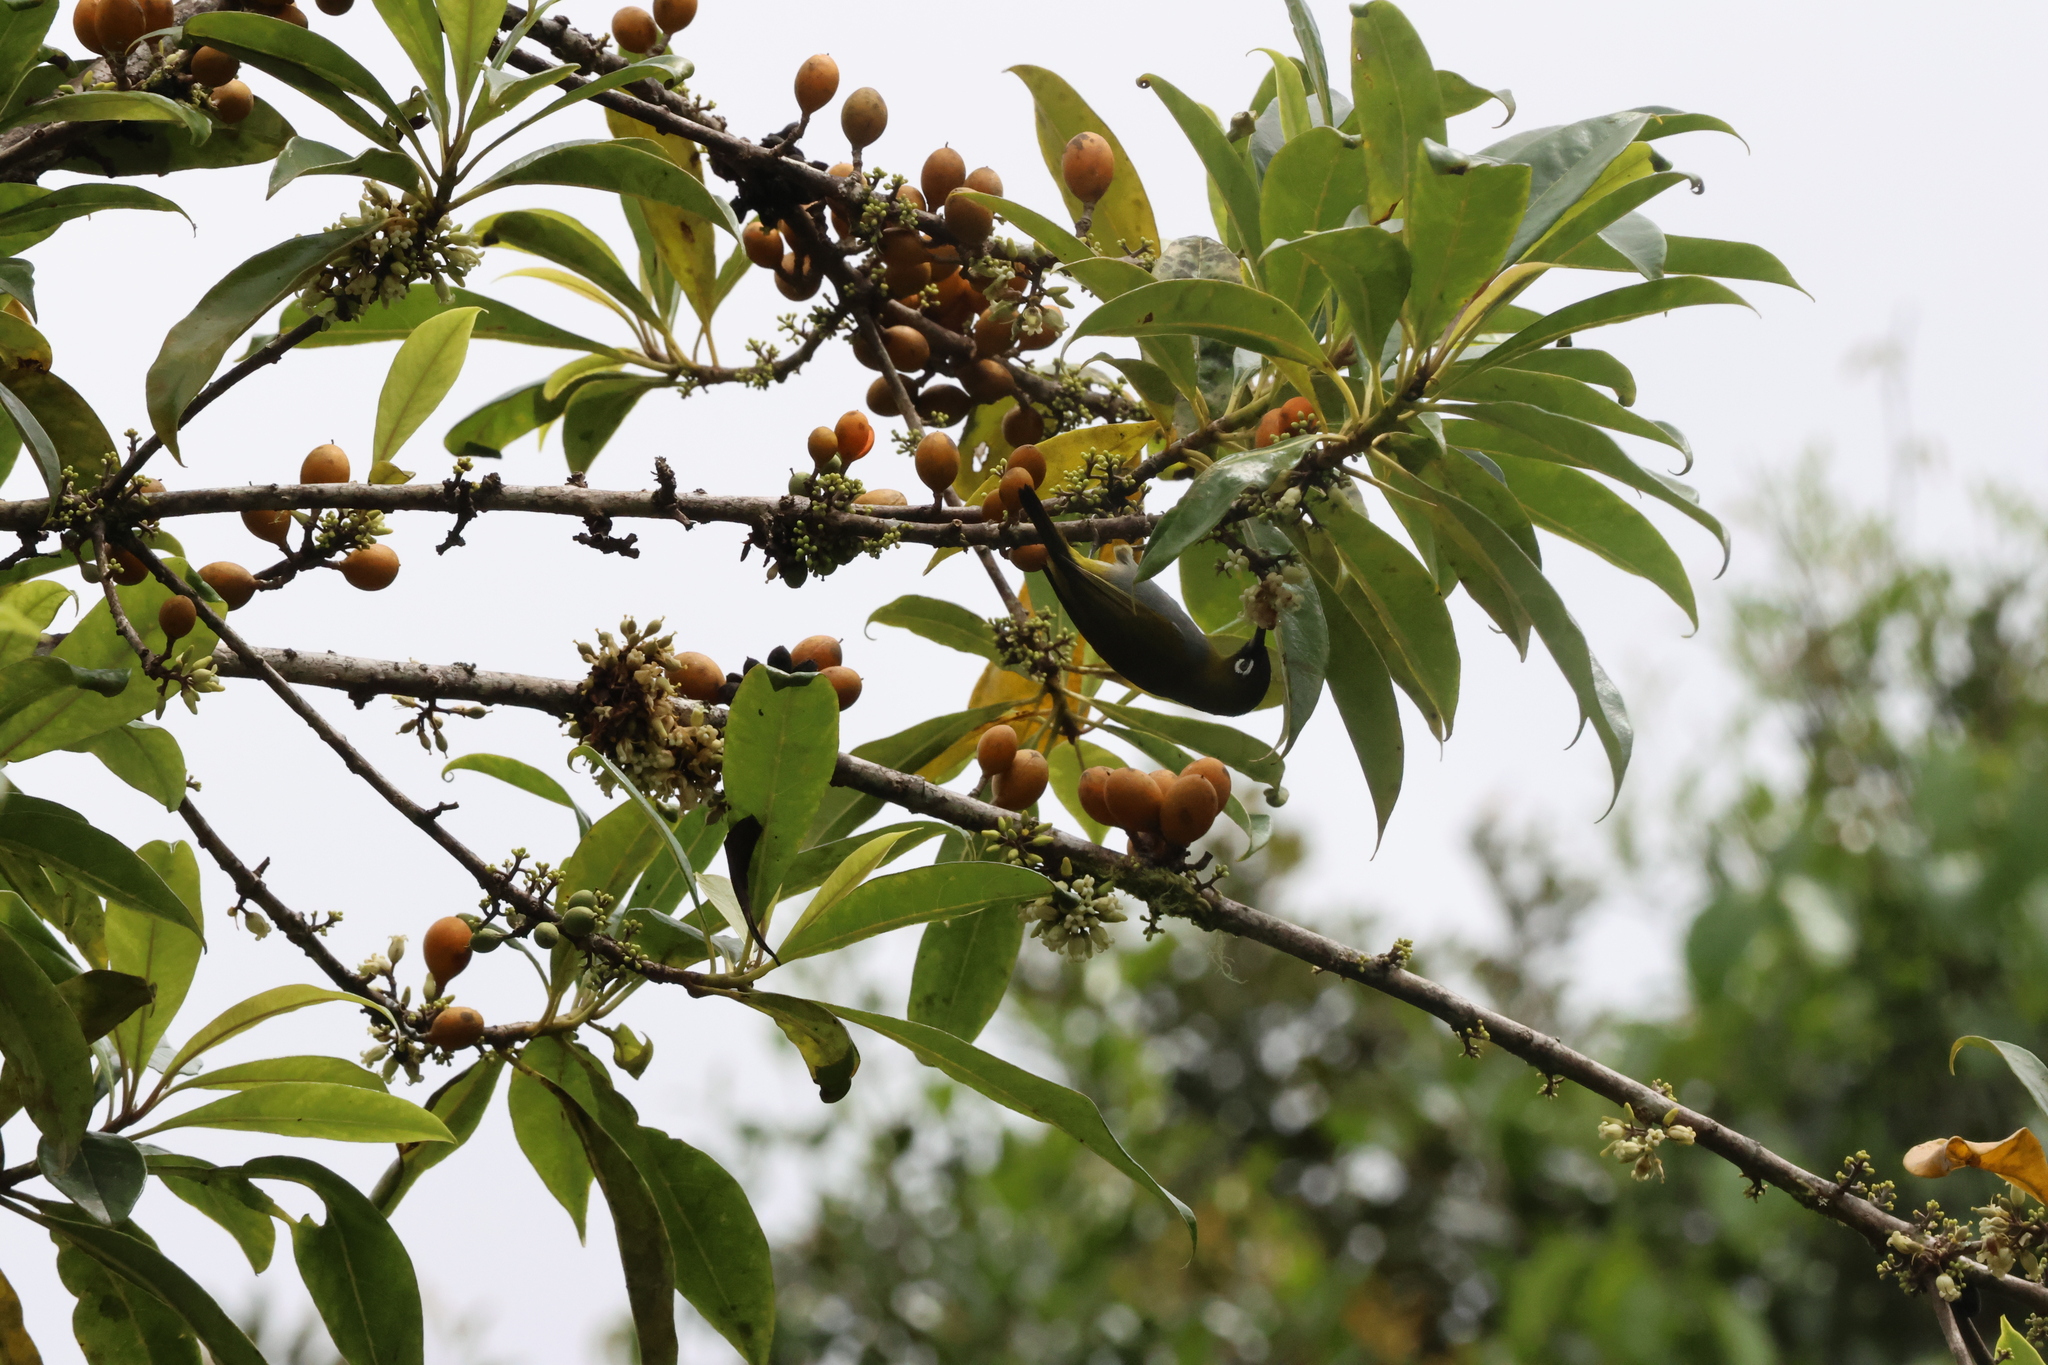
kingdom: Animalia
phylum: Chordata
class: Aves
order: Passeriformes
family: Zosteropidae
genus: Zosterops
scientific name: Zosterops atricapilla
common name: Black-capped white-eye
